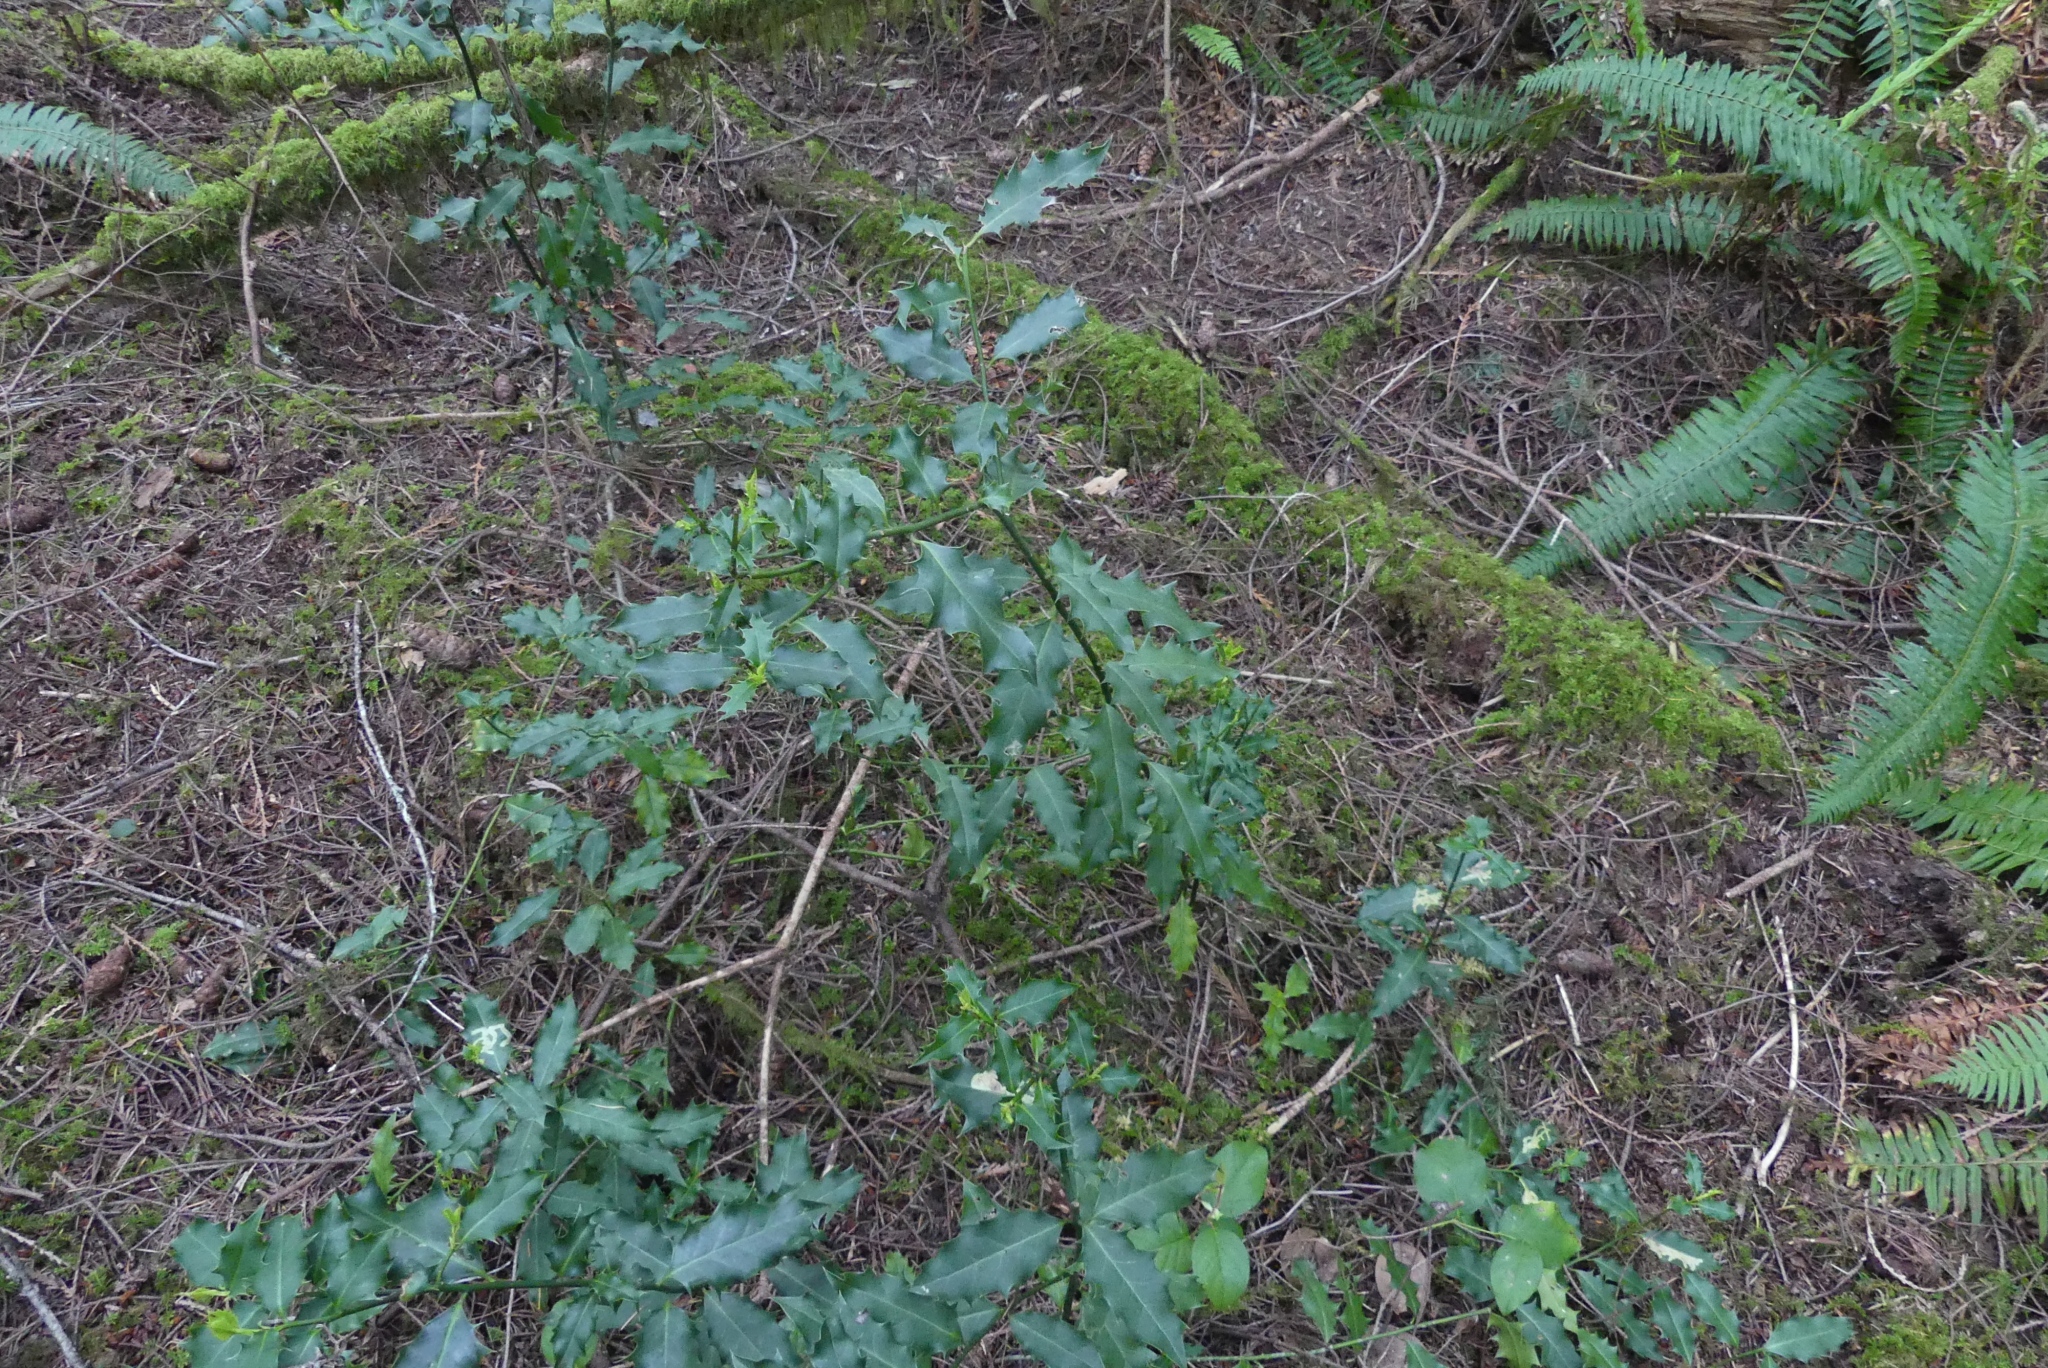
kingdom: Plantae
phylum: Tracheophyta
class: Magnoliopsida
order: Aquifoliales
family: Aquifoliaceae
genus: Ilex
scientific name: Ilex aquifolium
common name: English holly
